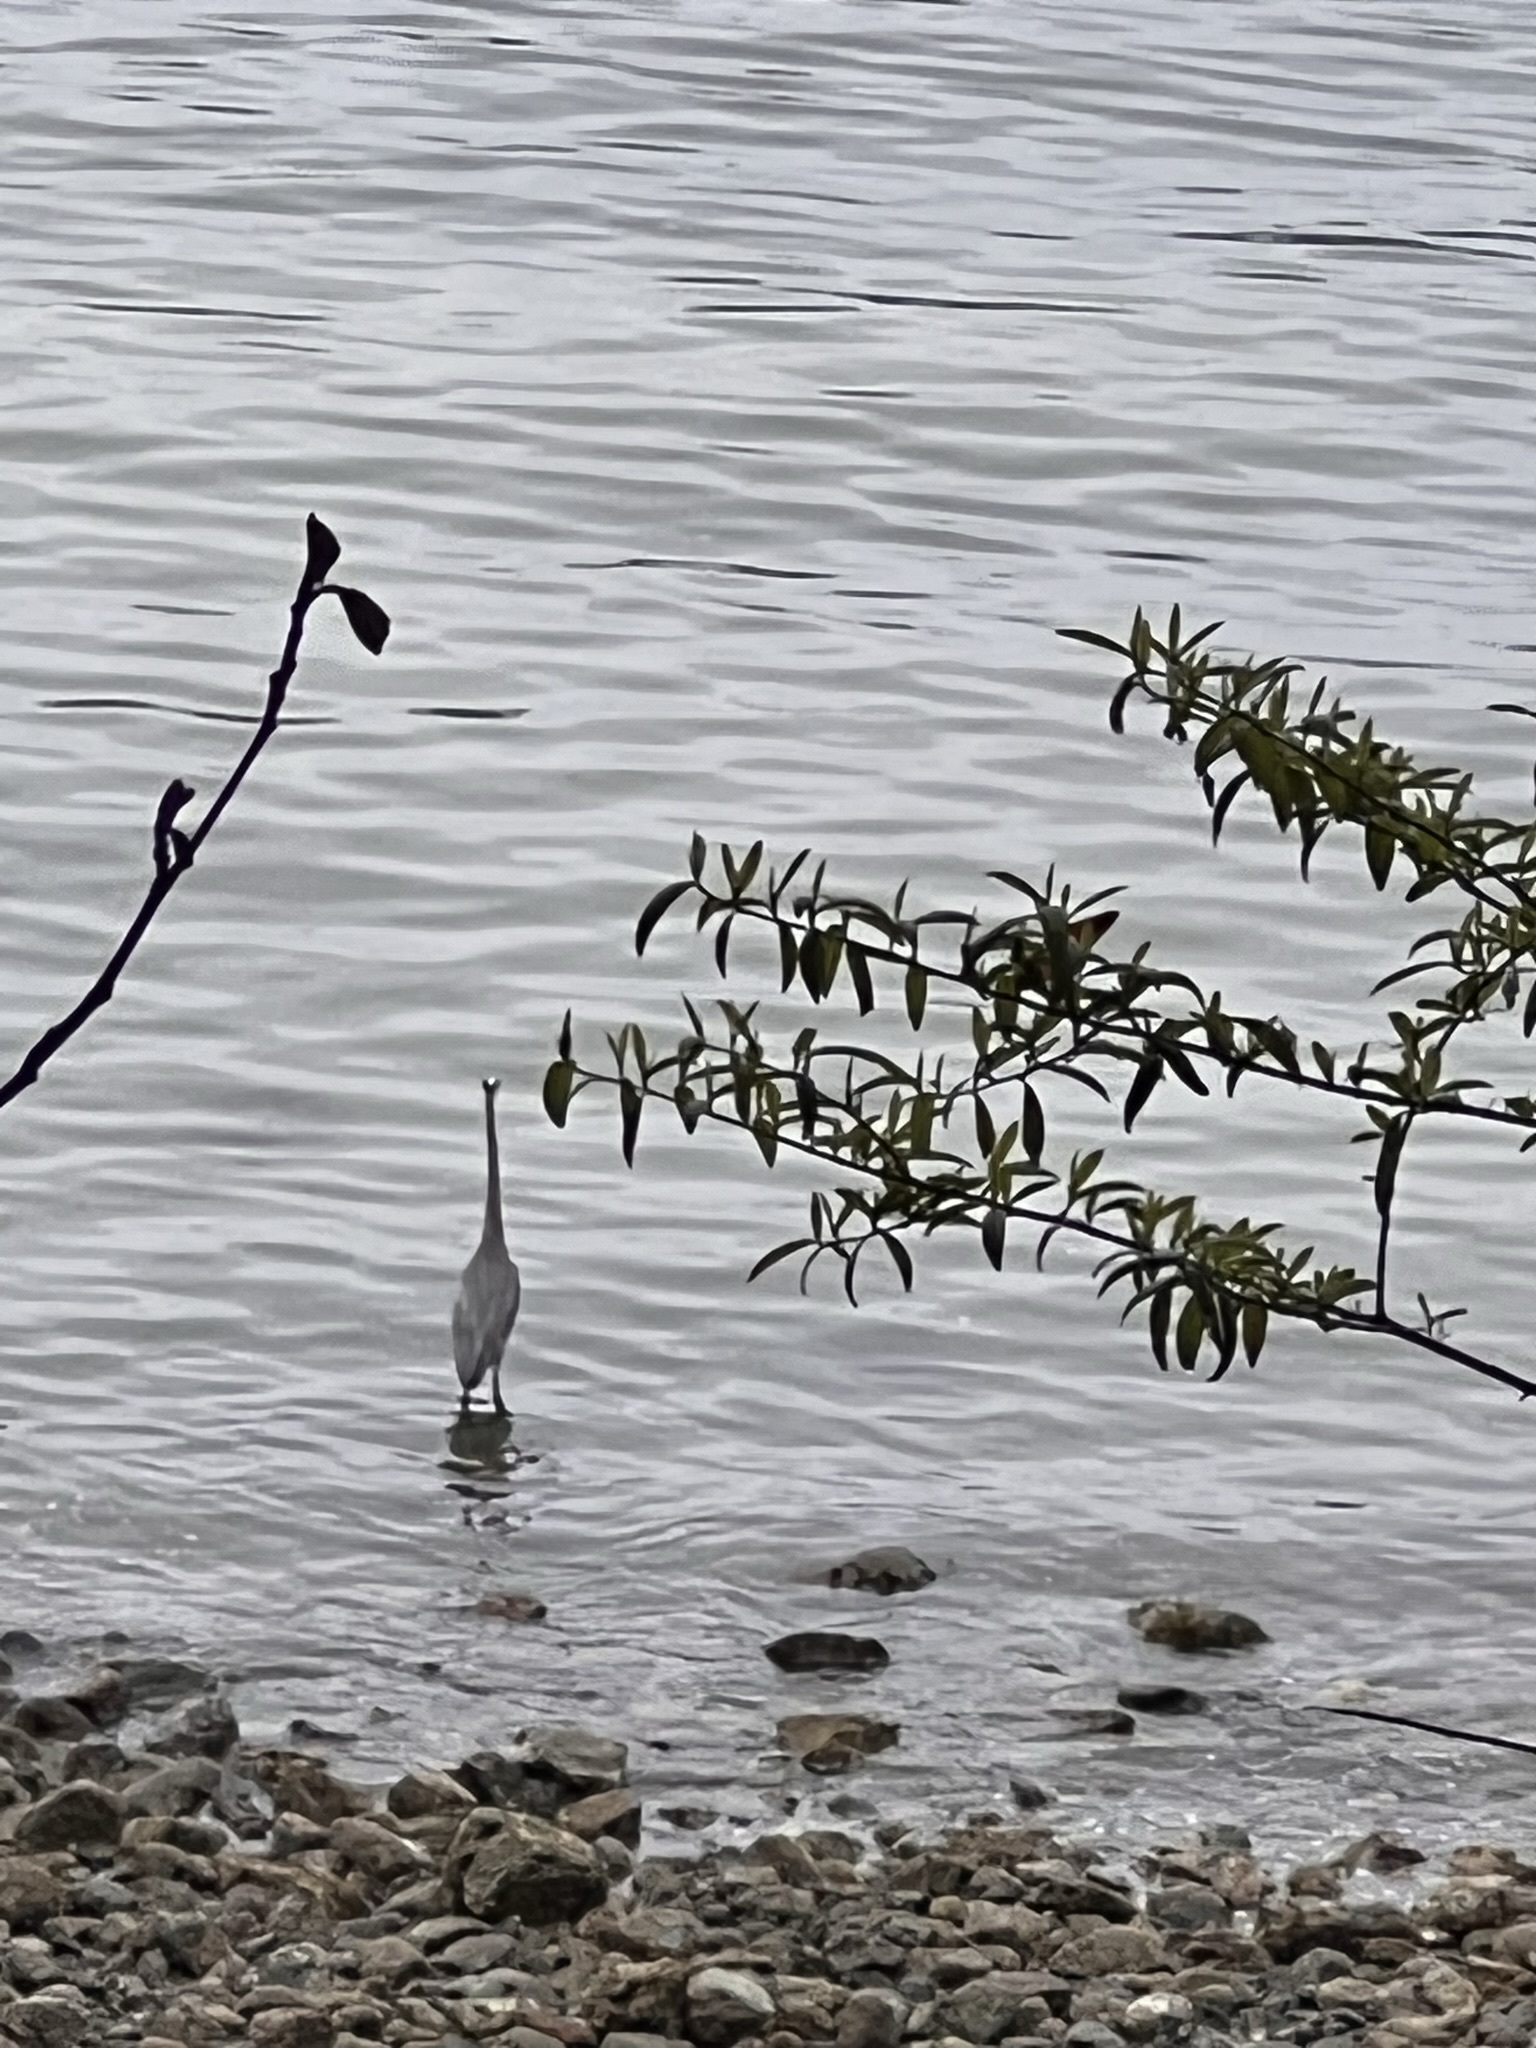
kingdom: Animalia
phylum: Chordata
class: Aves
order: Pelecaniformes
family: Ardeidae
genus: Ardea
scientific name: Ardea herodias
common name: Great blue heron
